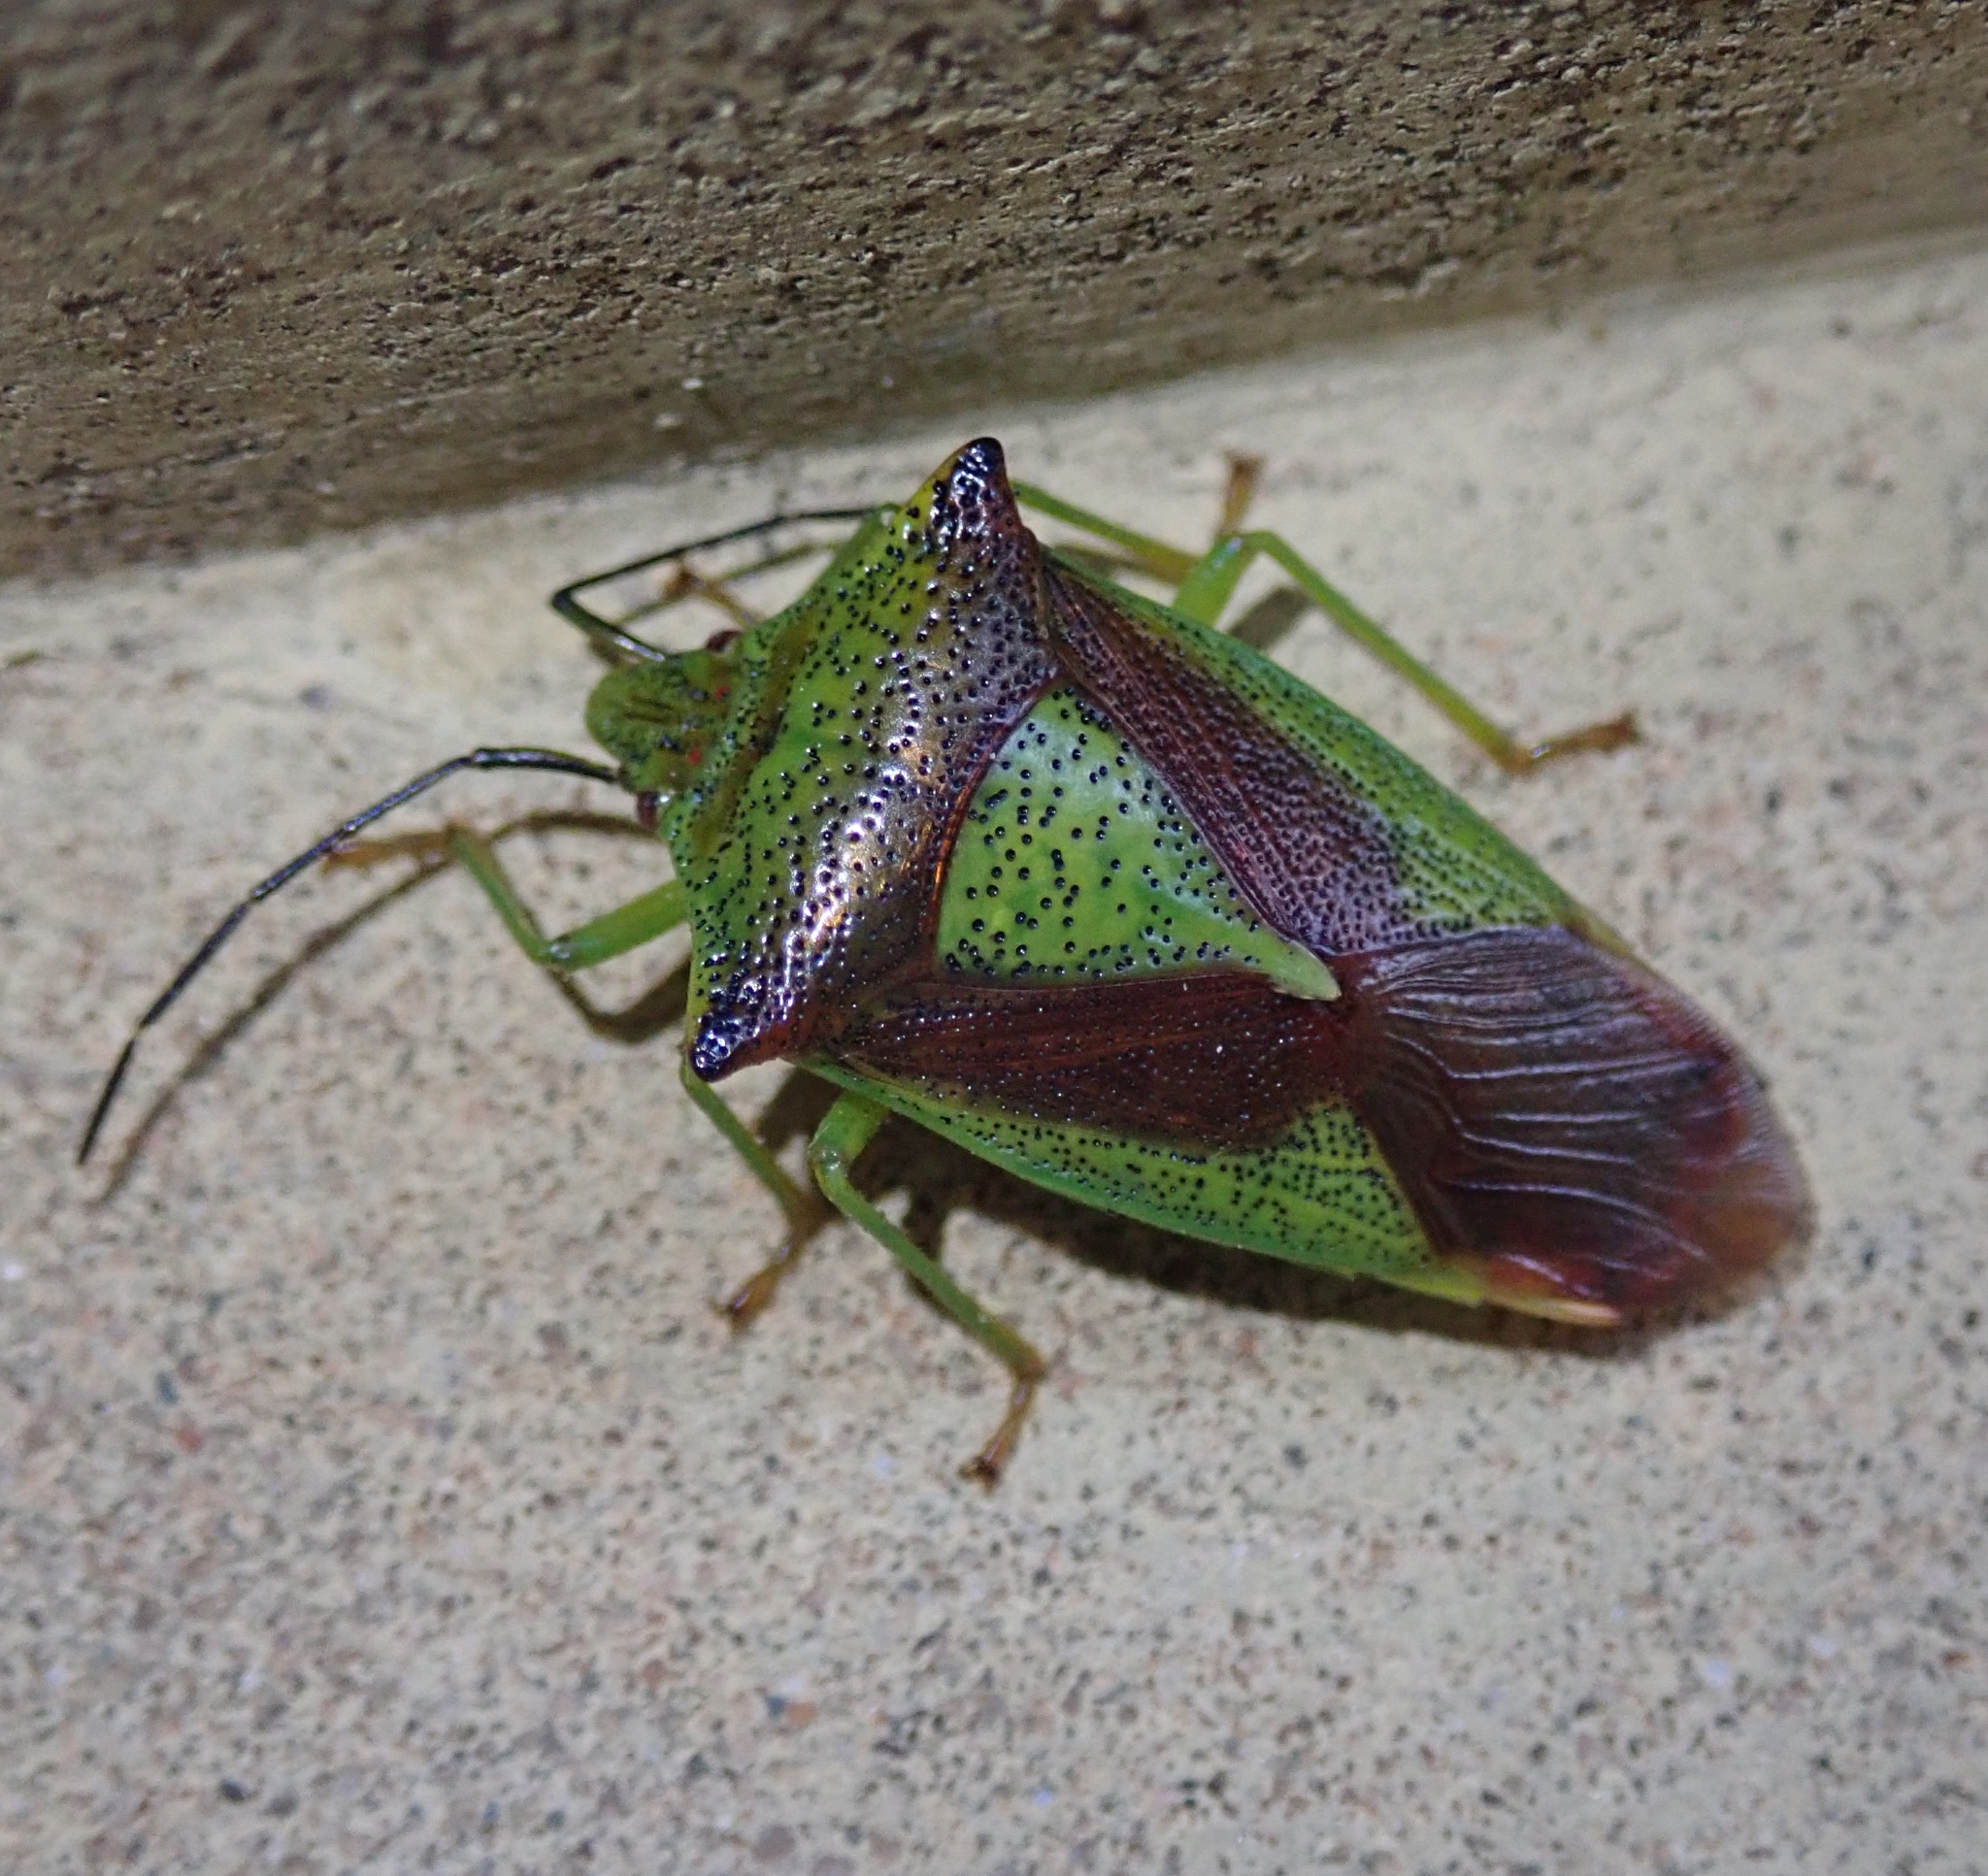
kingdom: Animalia
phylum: Arthropoda
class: Insecta
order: Hemiptera
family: Acanthosomatidae
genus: Acanthosoma
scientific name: Acanthosoma haemorrhoidale
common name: Hawthorn shieldbug
